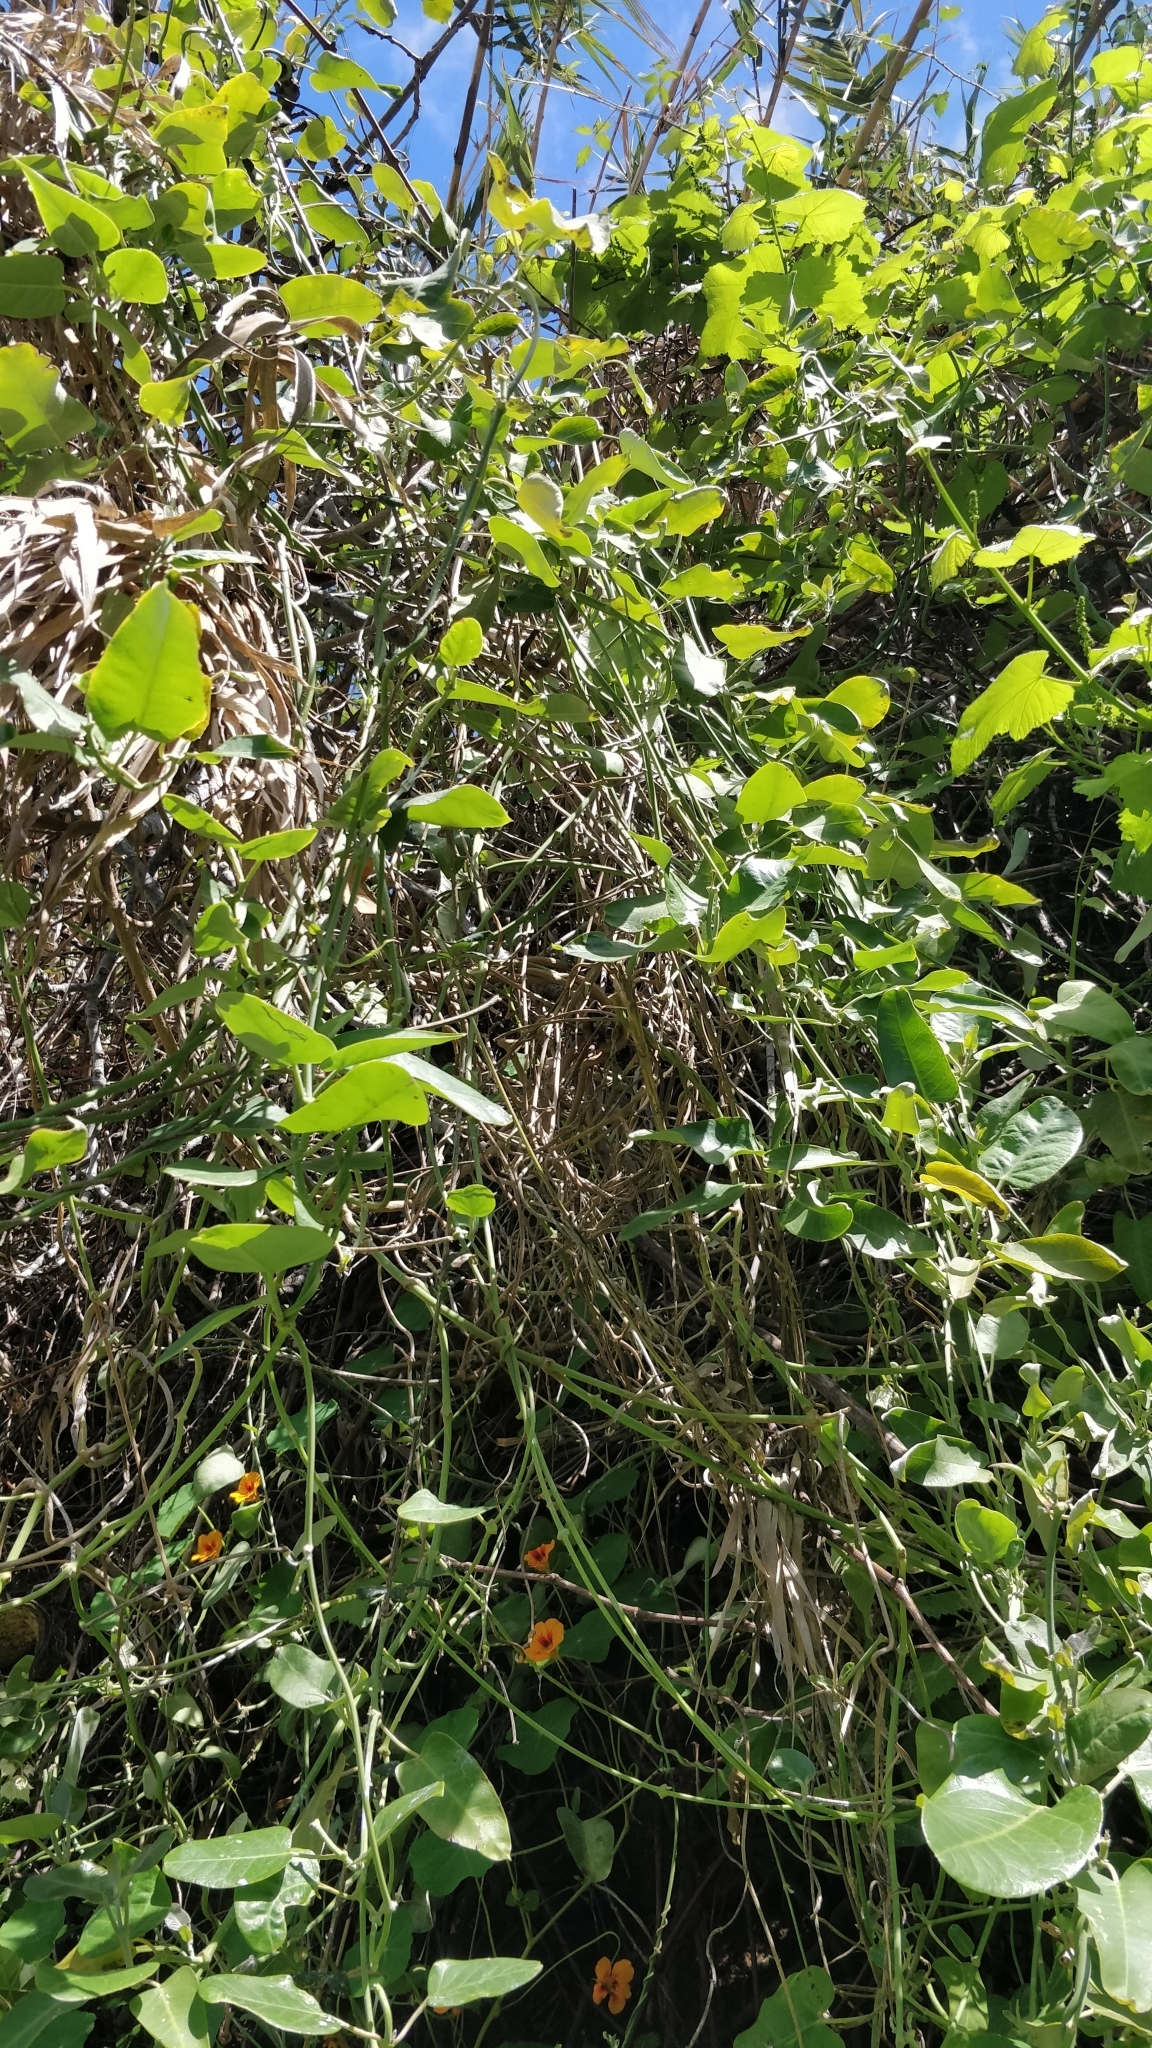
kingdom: Plantae
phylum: Tracheophyta
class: Magnoliopsida
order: Gentianales
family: Apocynaceae
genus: Araujia
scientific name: Araujia sericifera
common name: White bladderflower
